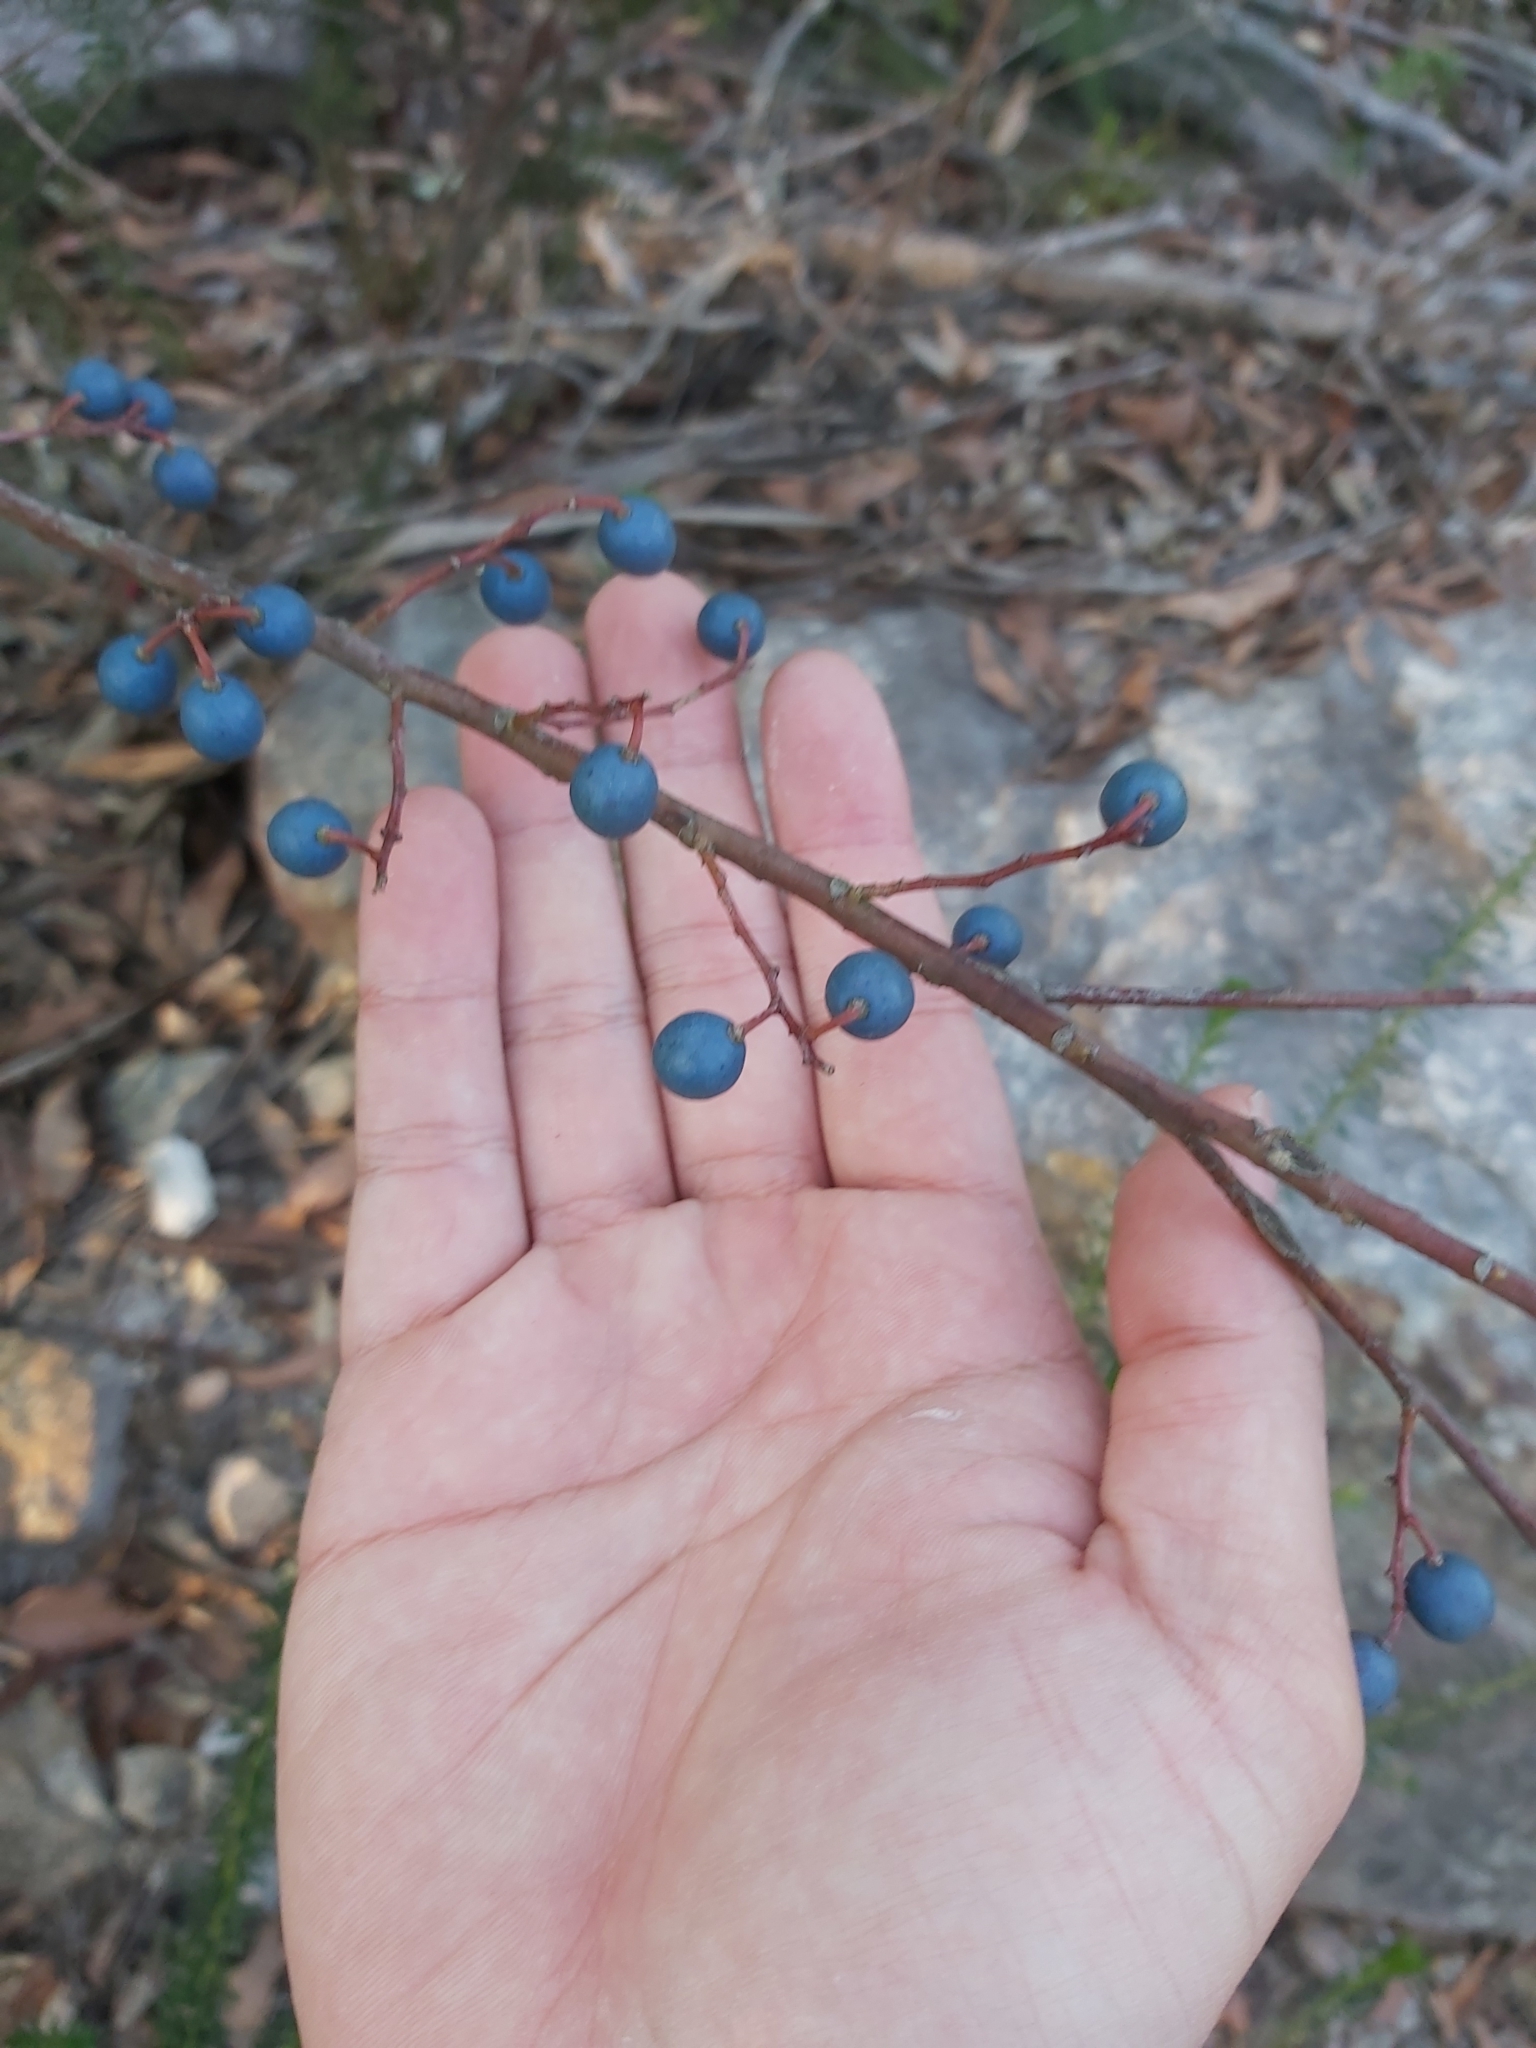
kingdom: Plantae
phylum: Tracheophyta
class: Magnoliopsida
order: Oxalidales
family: Elaeocarpaceae
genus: Elaeocarpus
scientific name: Elaeocarpus reticulatus
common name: Ash quandong
